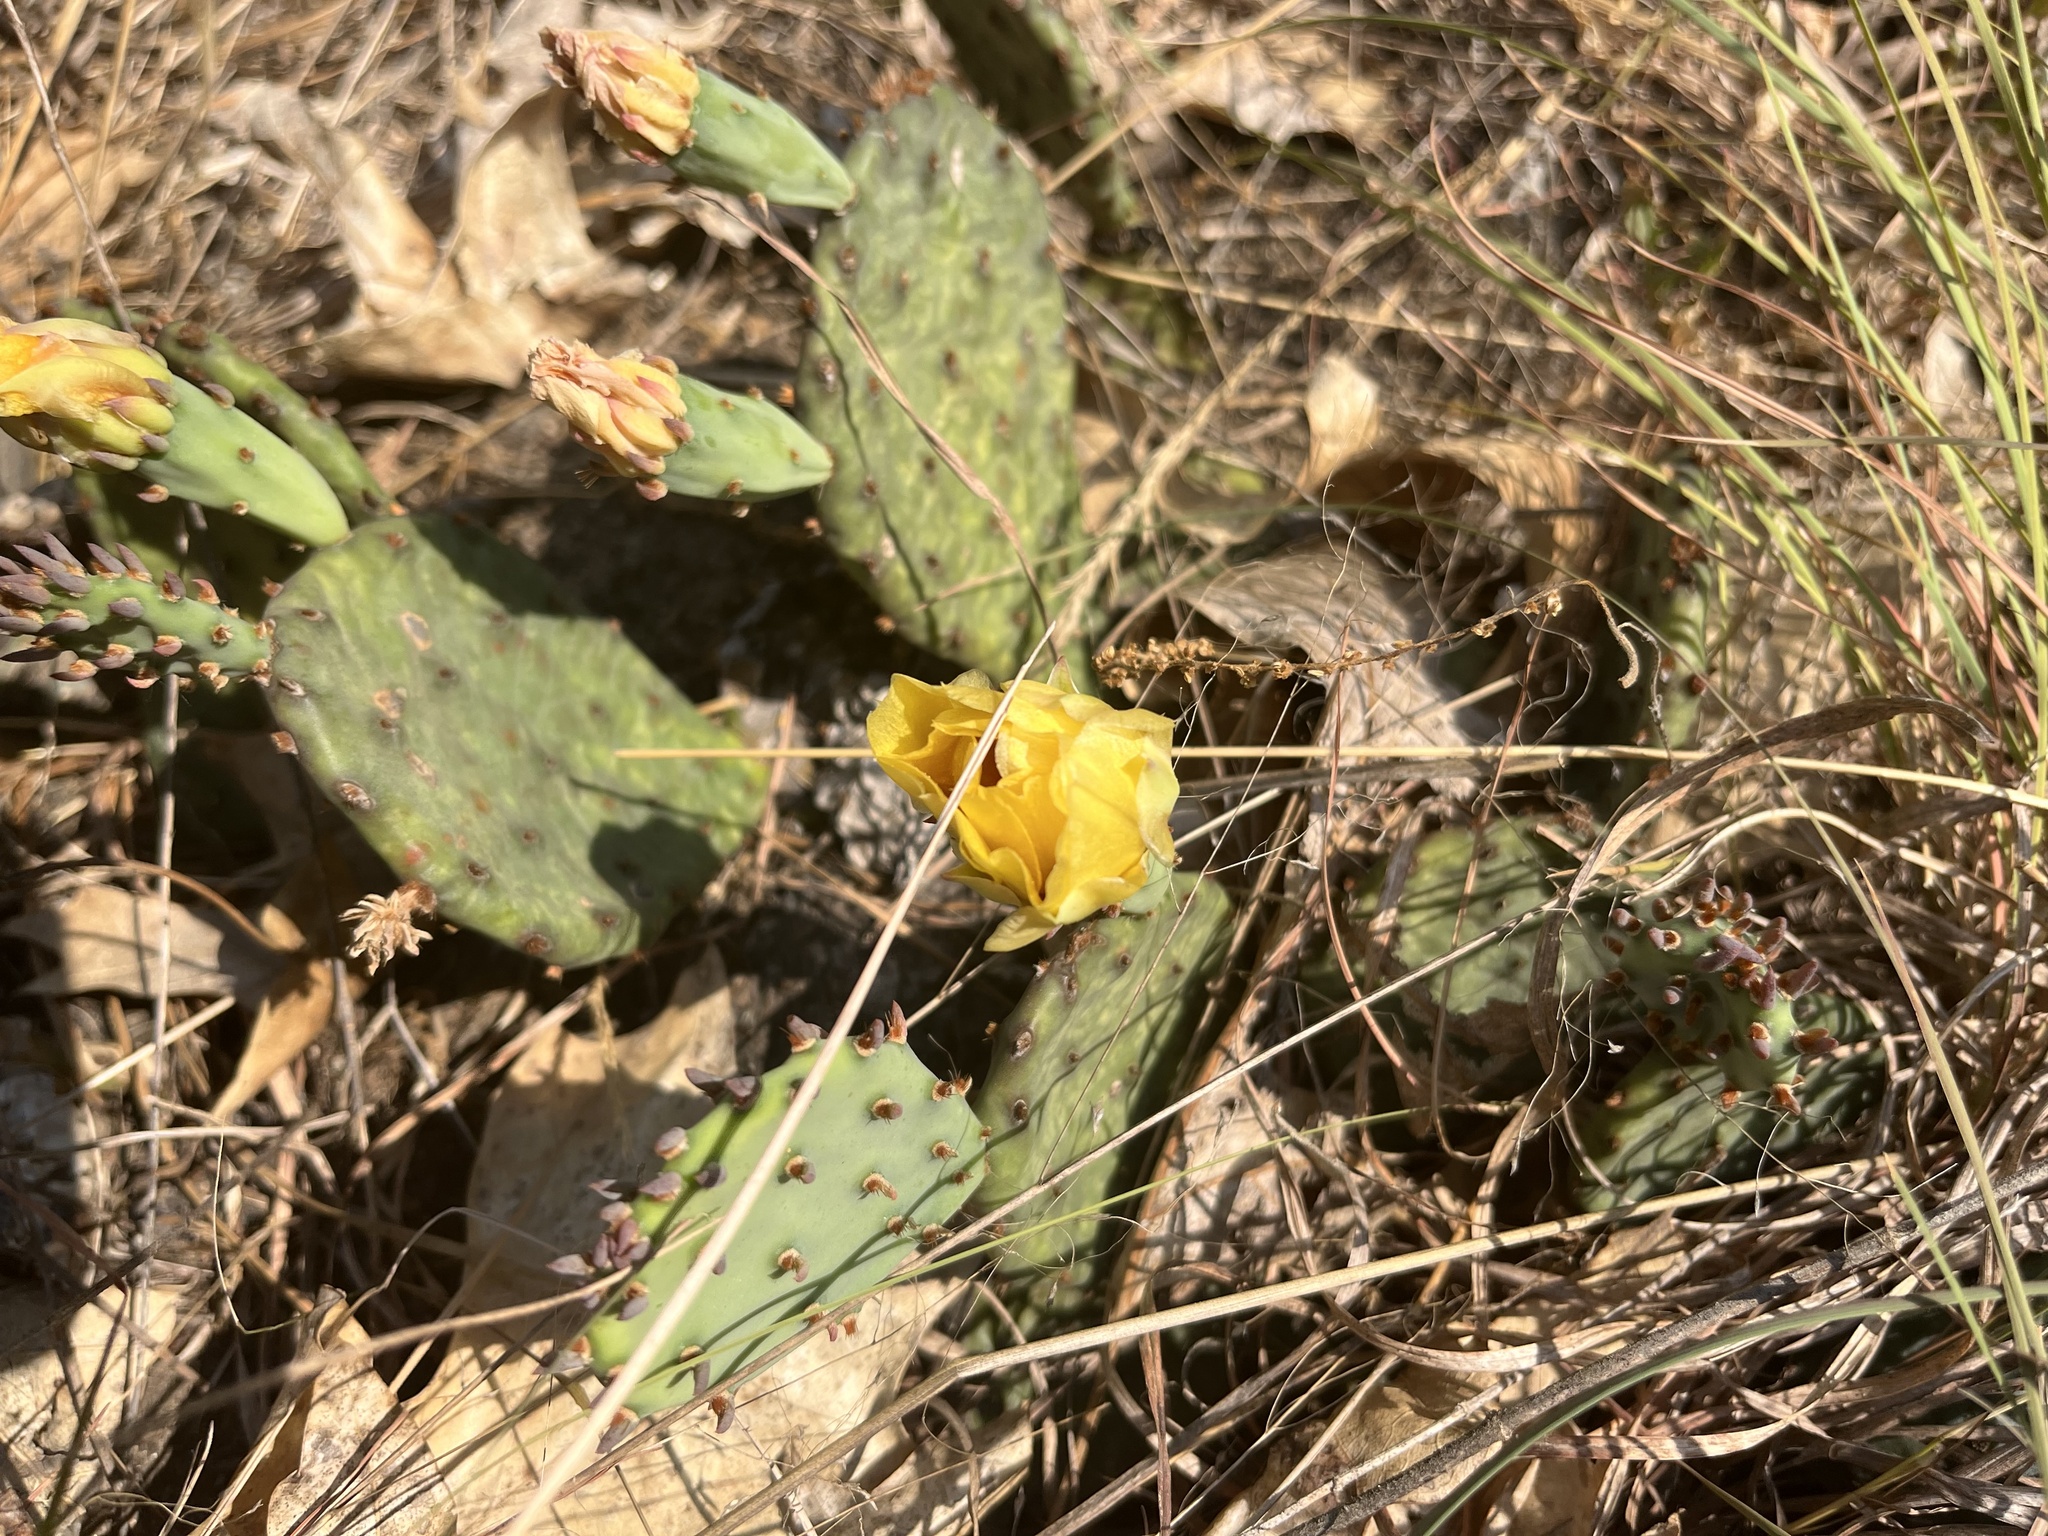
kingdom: Plantae
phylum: Tracheophyta
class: Magnoliopsida
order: Caryophyllales
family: Cactaceae
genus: Opuntia
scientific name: Opuntia humifusa
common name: Eastern prickly-pear
